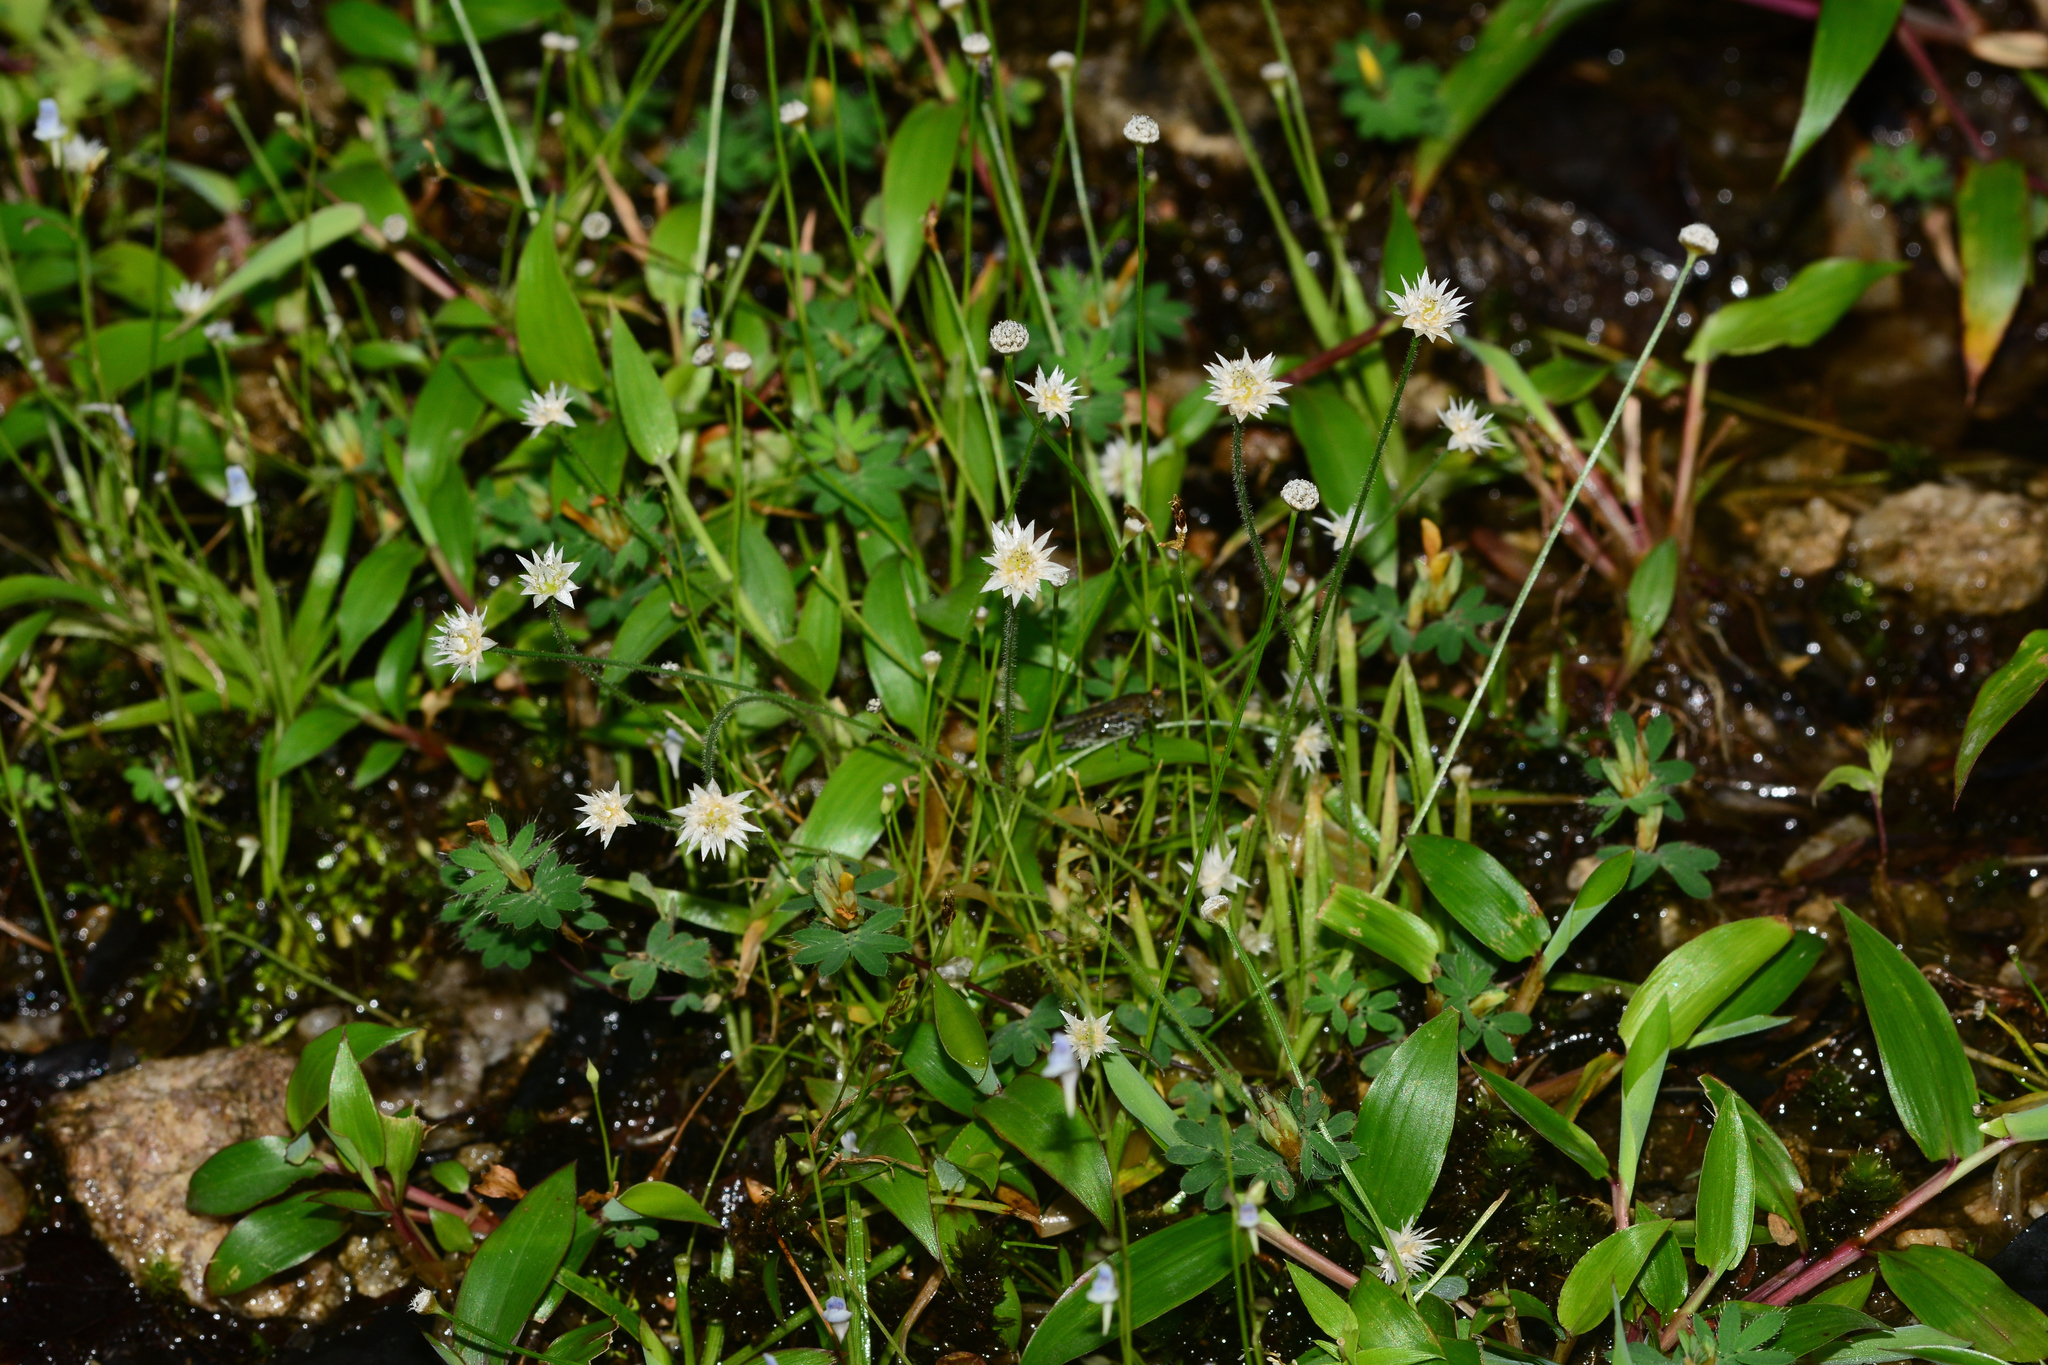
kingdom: Plantae
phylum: Tracheophyta
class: Liliopsida
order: Poales
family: Eriocaulaceae
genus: Eriocaulon
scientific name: Eriocaulon stellulatum
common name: Starry pipewort
